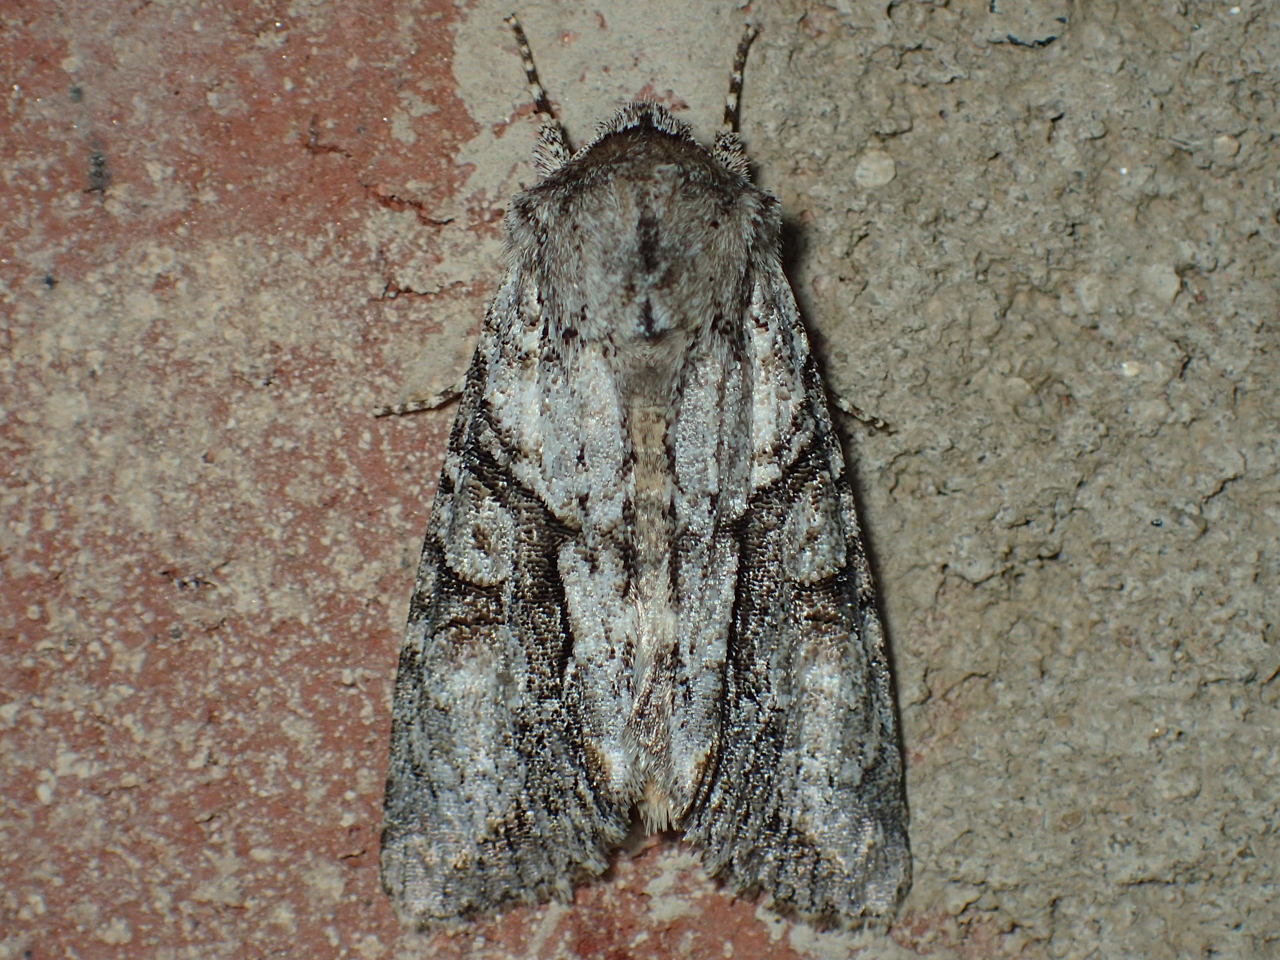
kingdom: Animalia
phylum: Arthropoda
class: Insecta
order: Lepidoptera
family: Noctuidae
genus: Achatia
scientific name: Achatia distincta
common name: Distinct quaker
